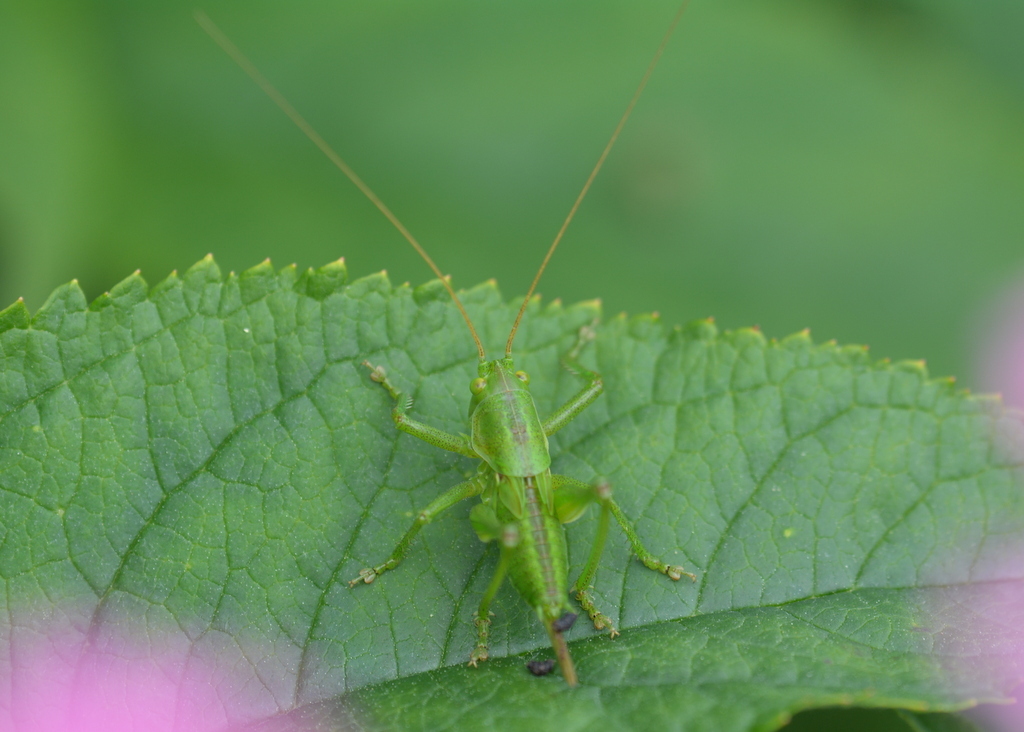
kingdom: Animalia
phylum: Arthropoda
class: Insecta
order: Orthoptera
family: Tettigoniidae
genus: Tettigonia
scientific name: Tettigonia viridissima
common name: Great green bush-cricket
